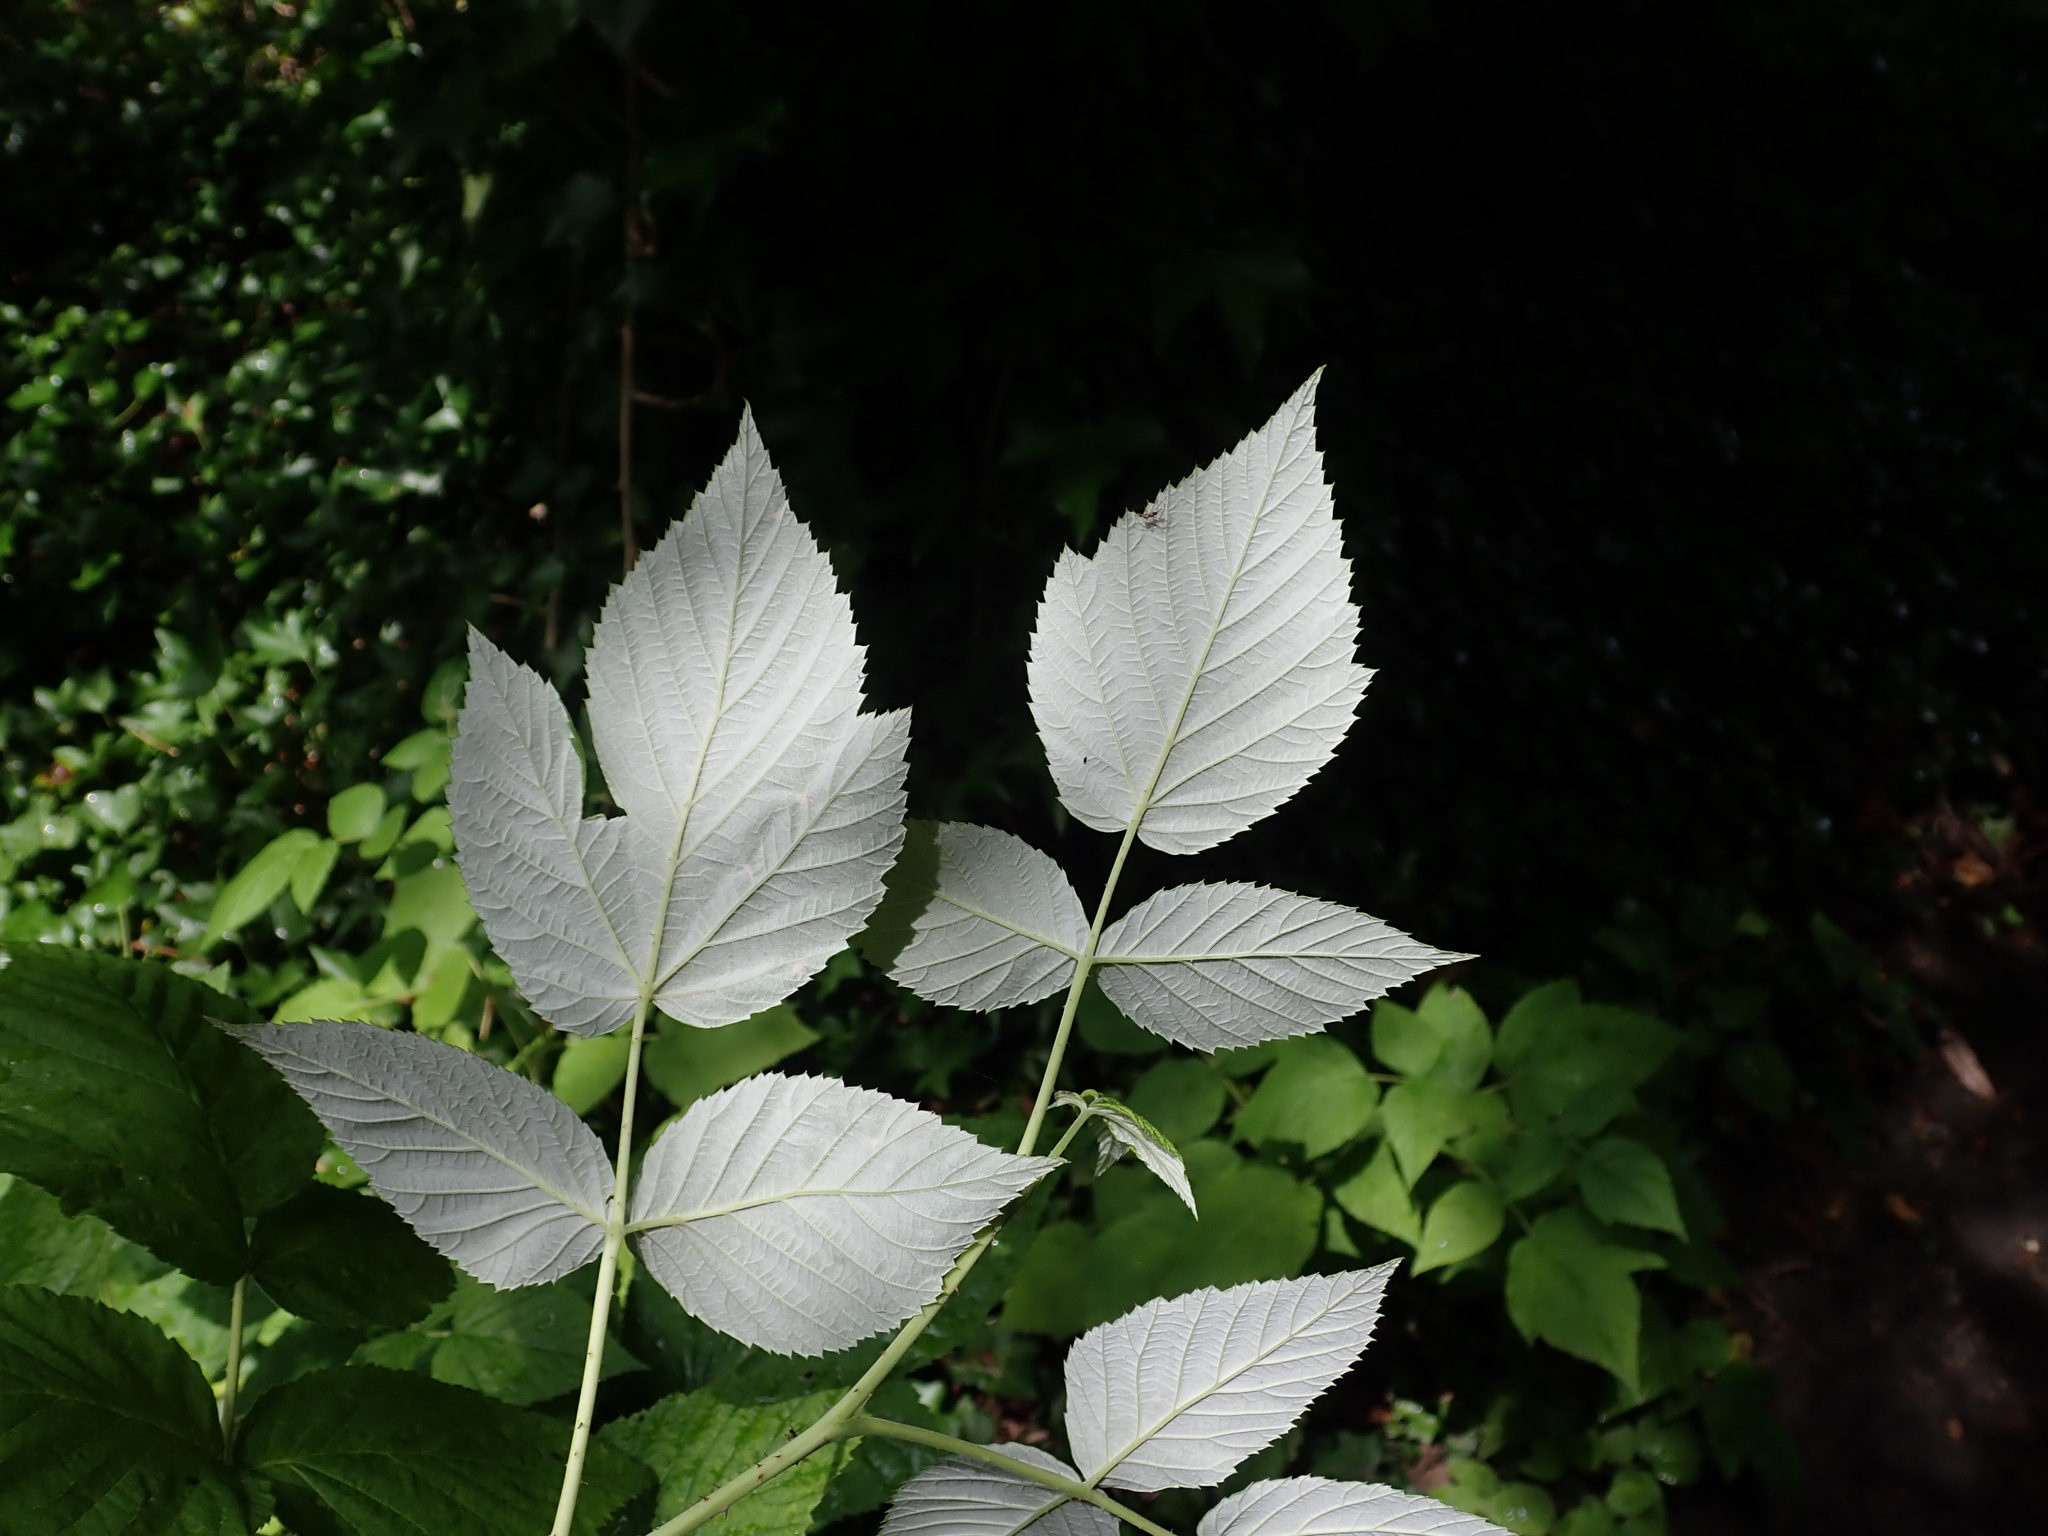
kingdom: Plantae
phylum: Tracheophyta
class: Magnoliopsida
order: Rosales
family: Rosaceae
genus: Rubus
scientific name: Rubus idaeus
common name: Raspberry
